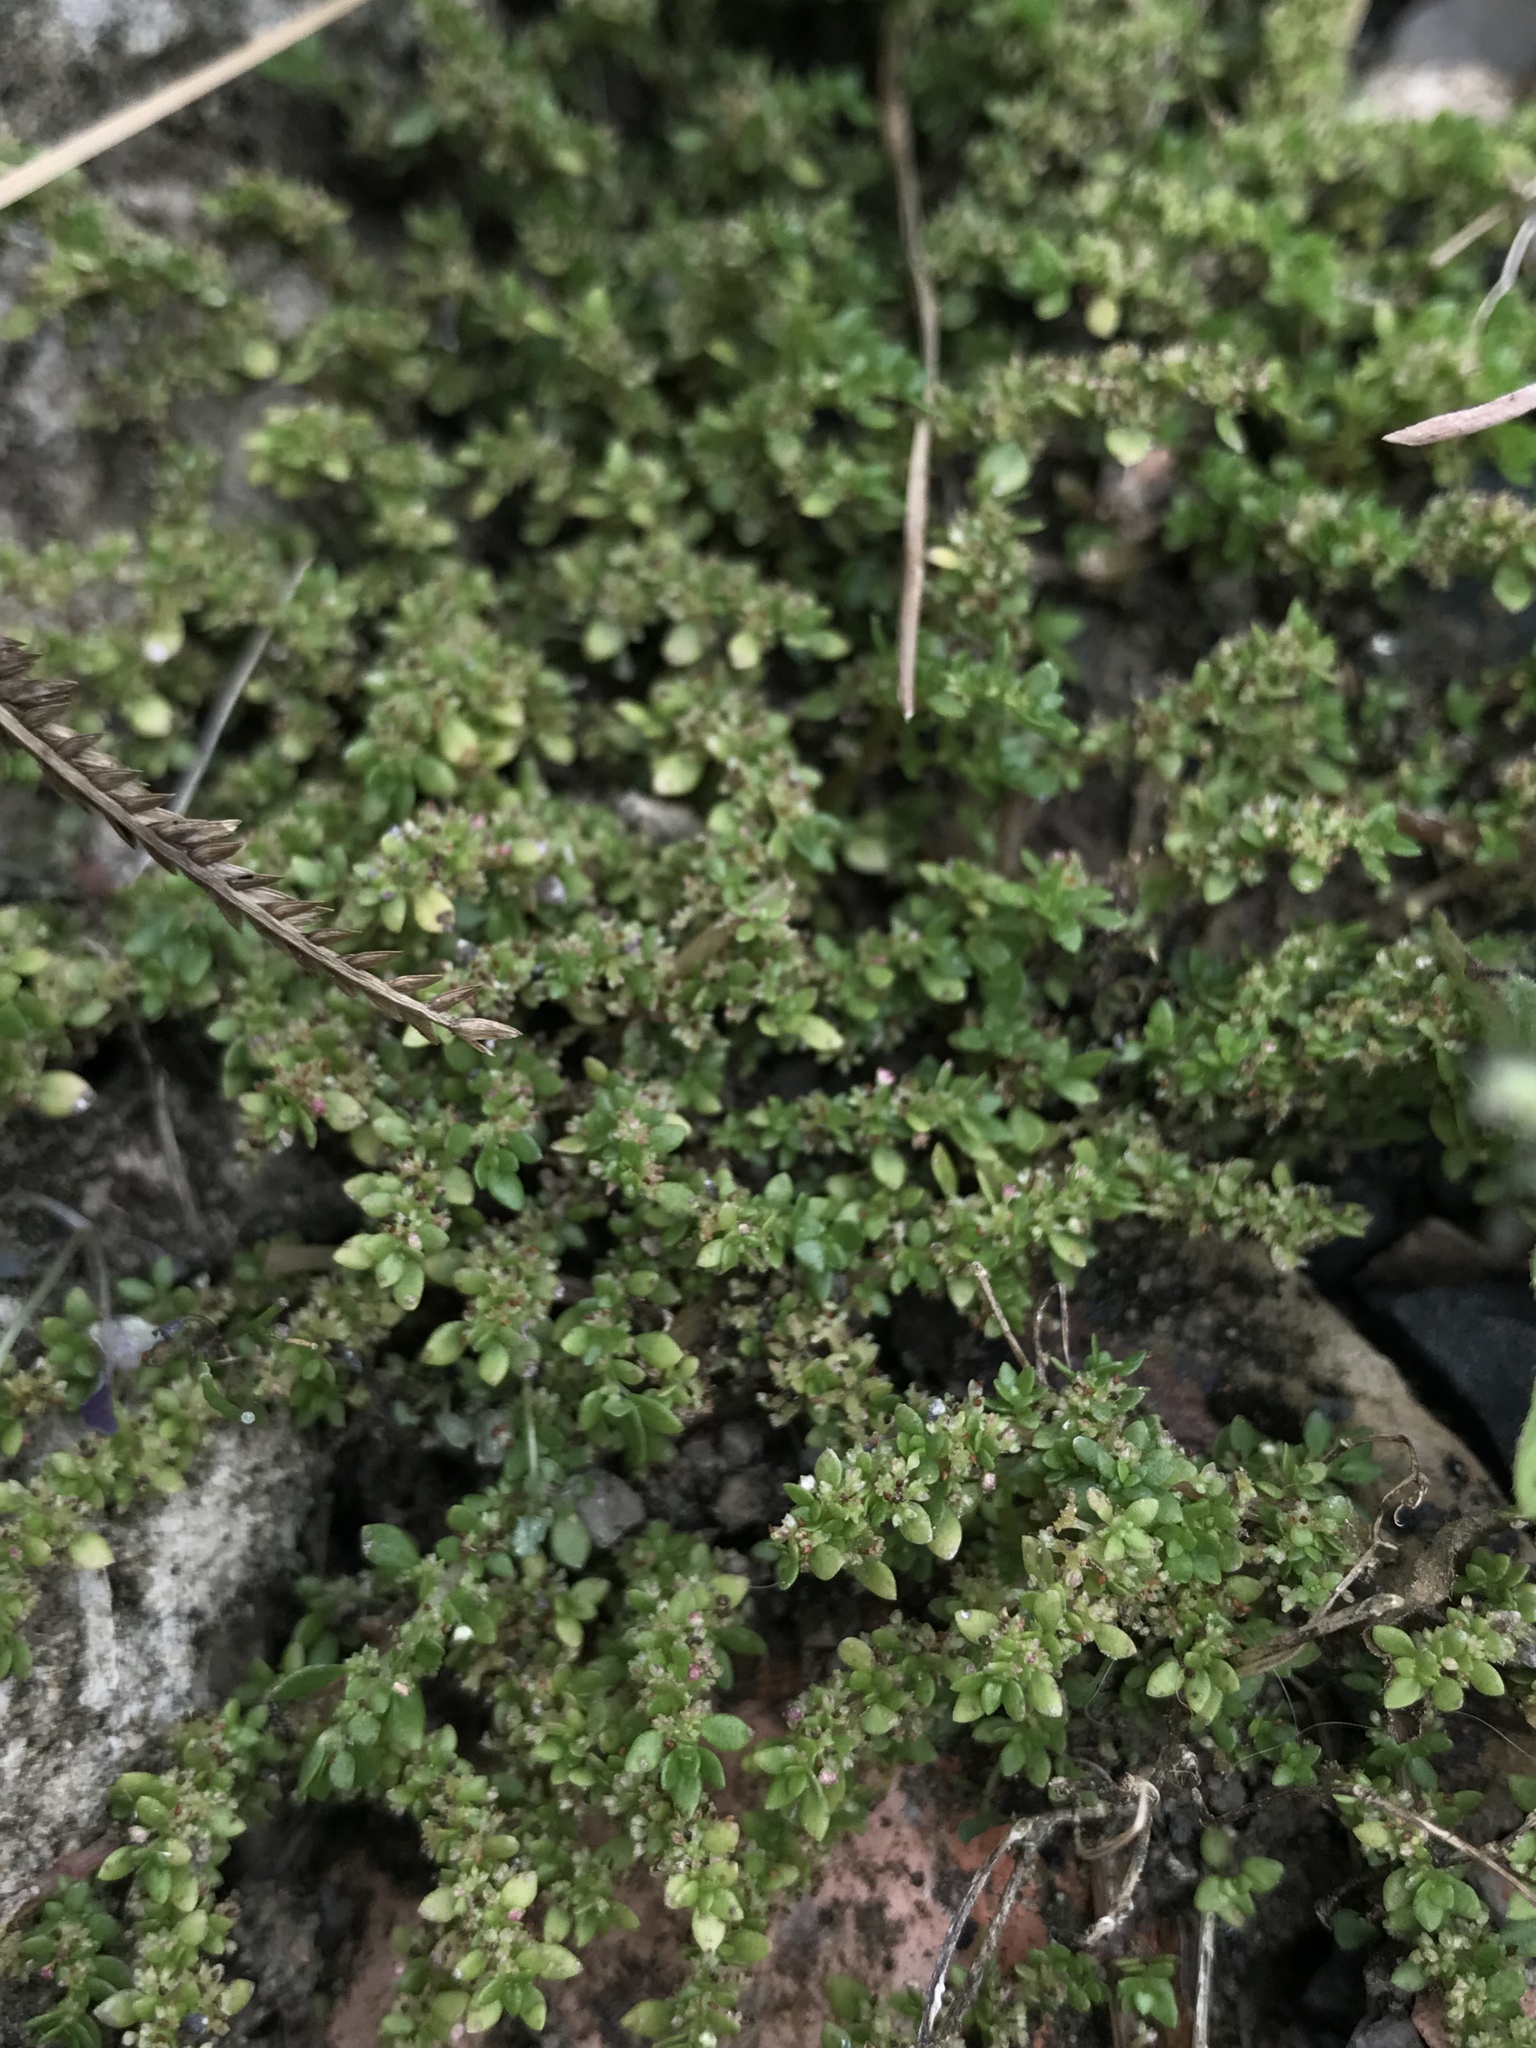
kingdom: Plantae
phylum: Tracheophyta
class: Magnoliopsida
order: Rosales
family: Urticaceae
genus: Pilea
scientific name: Pilea microphylla
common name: Artillery-plant
